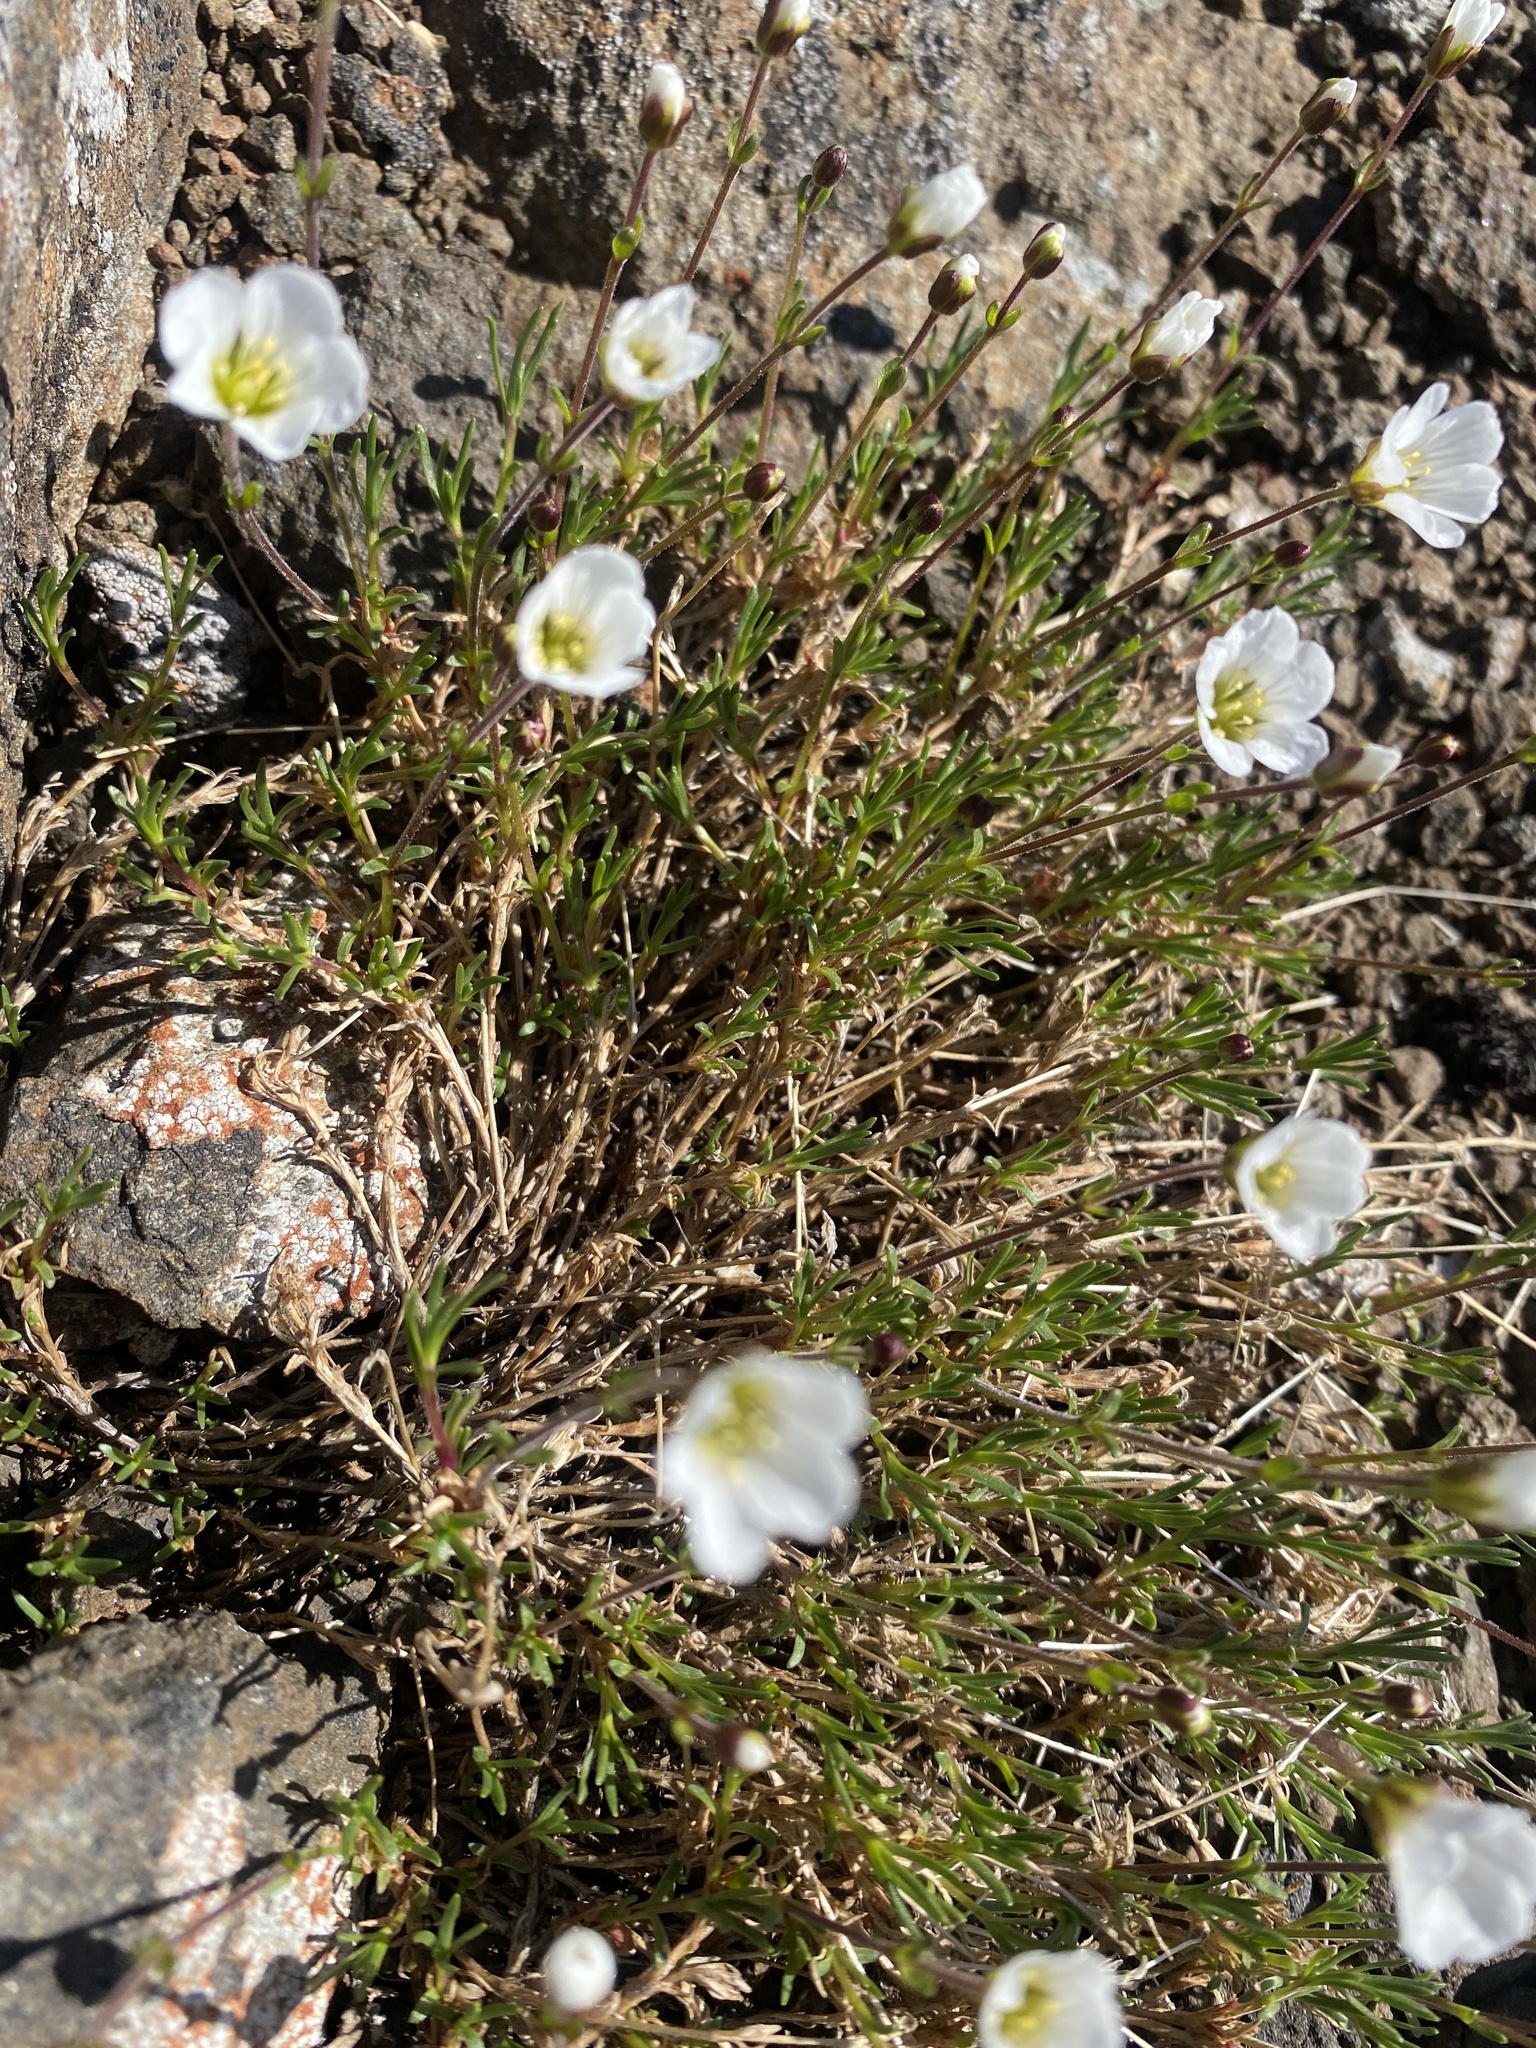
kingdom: Plantae
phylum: Tracheophyta
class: Magnoliopsida
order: Caryophyllales
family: Caryophyllaceae
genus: Cherleria
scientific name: Cherleria arctica
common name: Arctic sandwort
